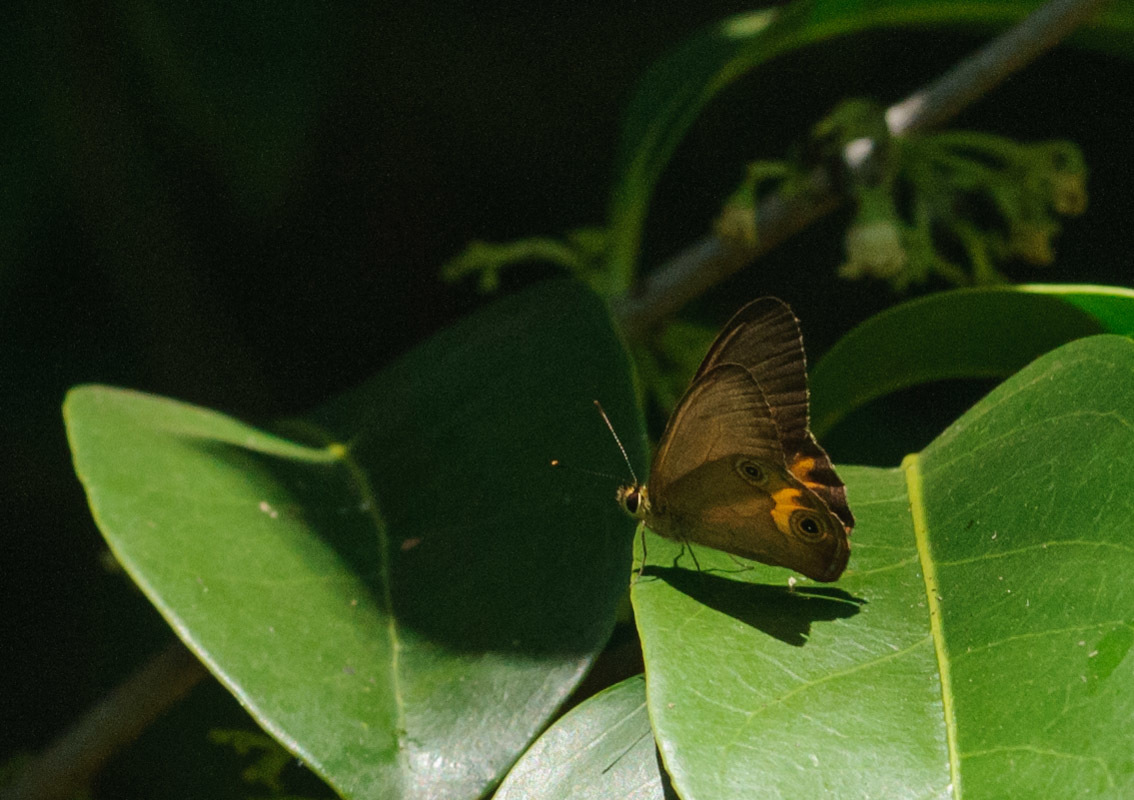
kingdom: Animalia
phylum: Arthropoda
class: Insecta
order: Lepidoptera
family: Nymphalidae
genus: Hypocysta
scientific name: Hypocysta metirius
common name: Brown ringlet
